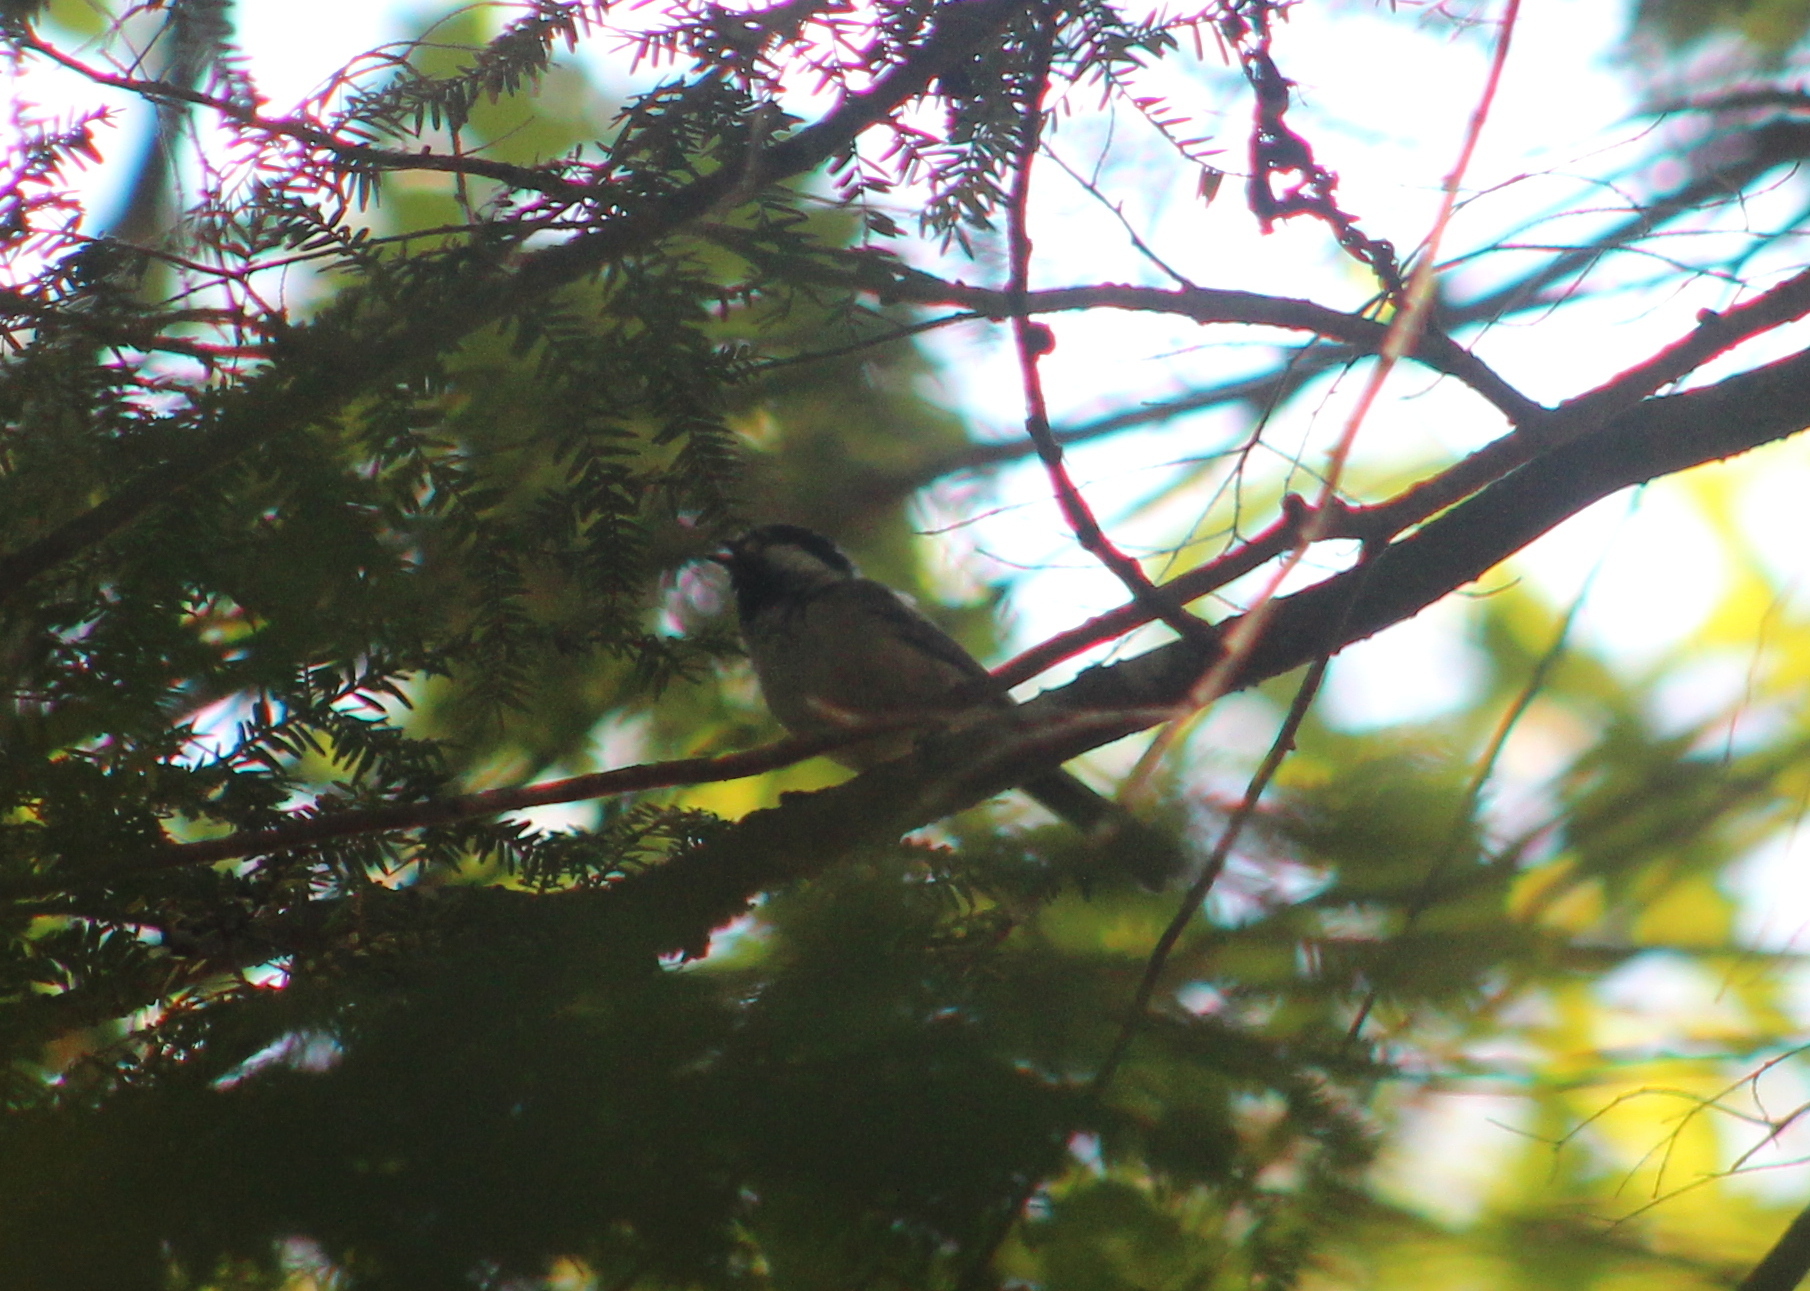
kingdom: Animalia
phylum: Chordata
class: Aves
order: Passeriformes
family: Paridae
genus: Poecile
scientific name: Poecile atricapillus
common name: Black-capped chickadee
